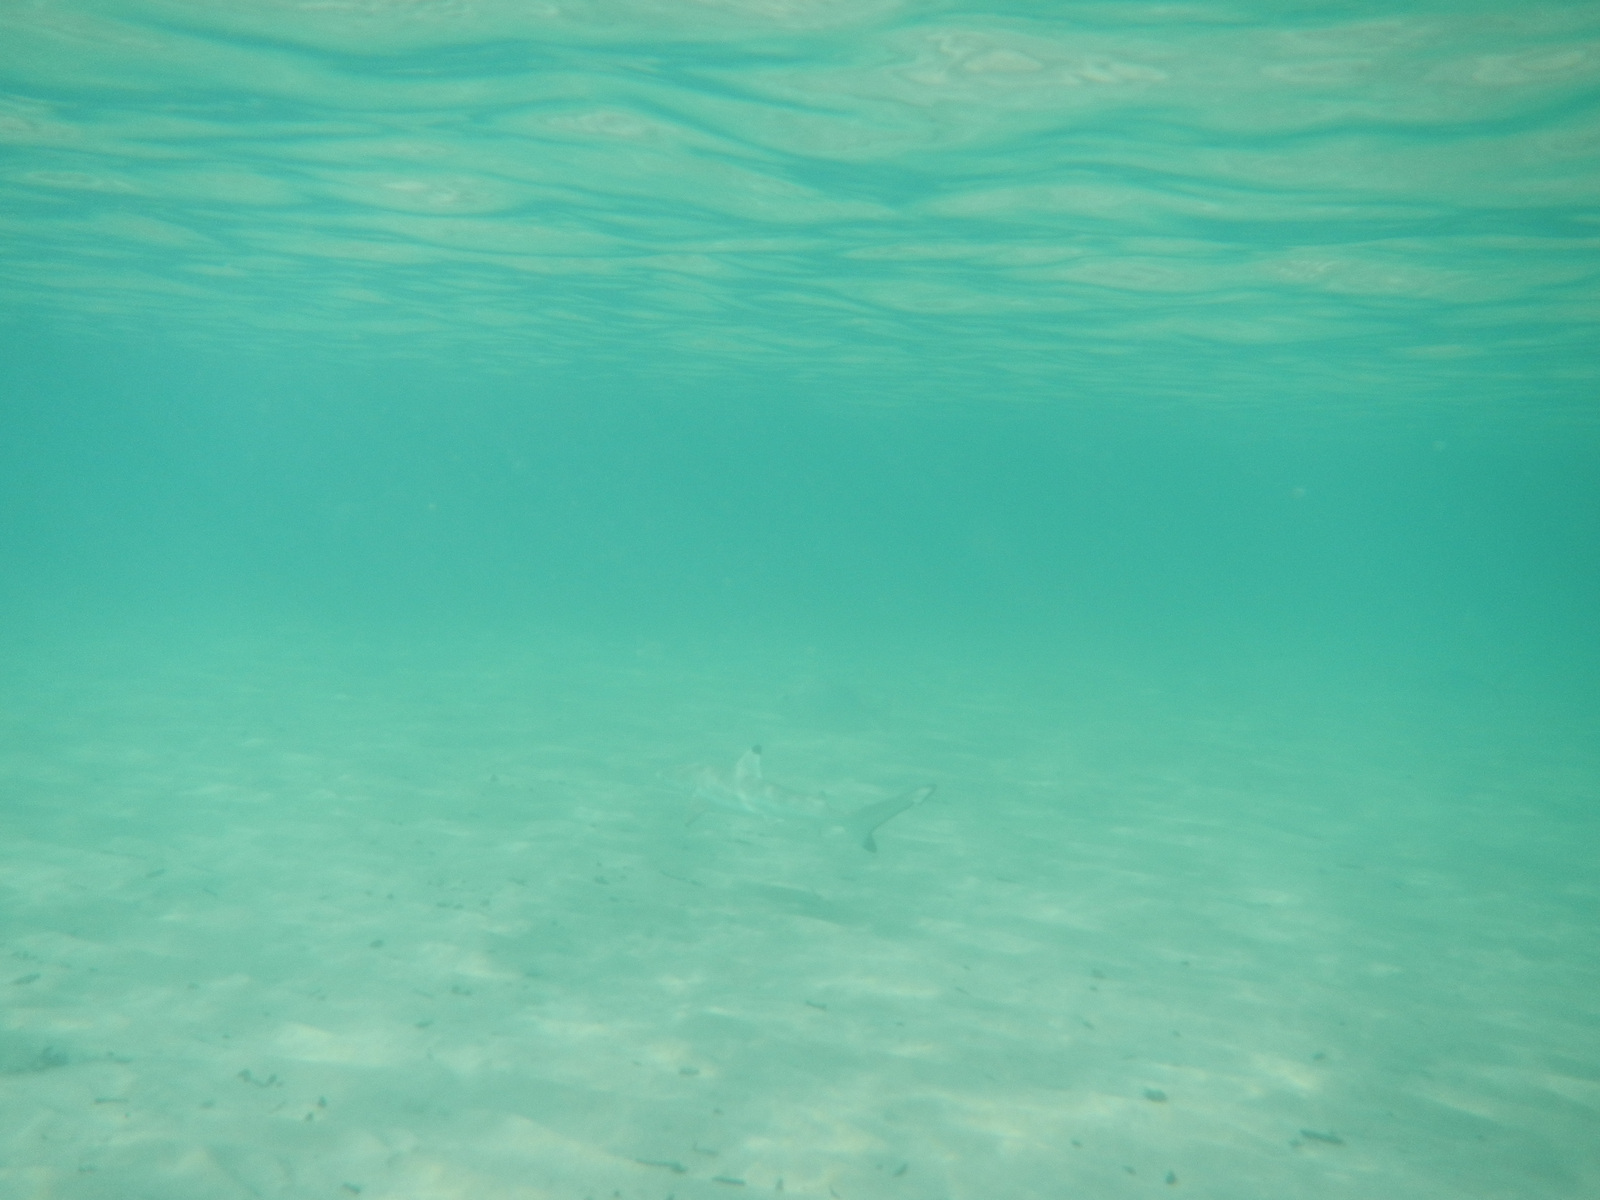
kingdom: Animalia
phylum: Chordata
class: Elasmobranchii
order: Carcharhiniformes
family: Carcharhinidae
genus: Carcharhinus
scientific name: Carcharhinus melanopterus
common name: Blacktip reef shark
